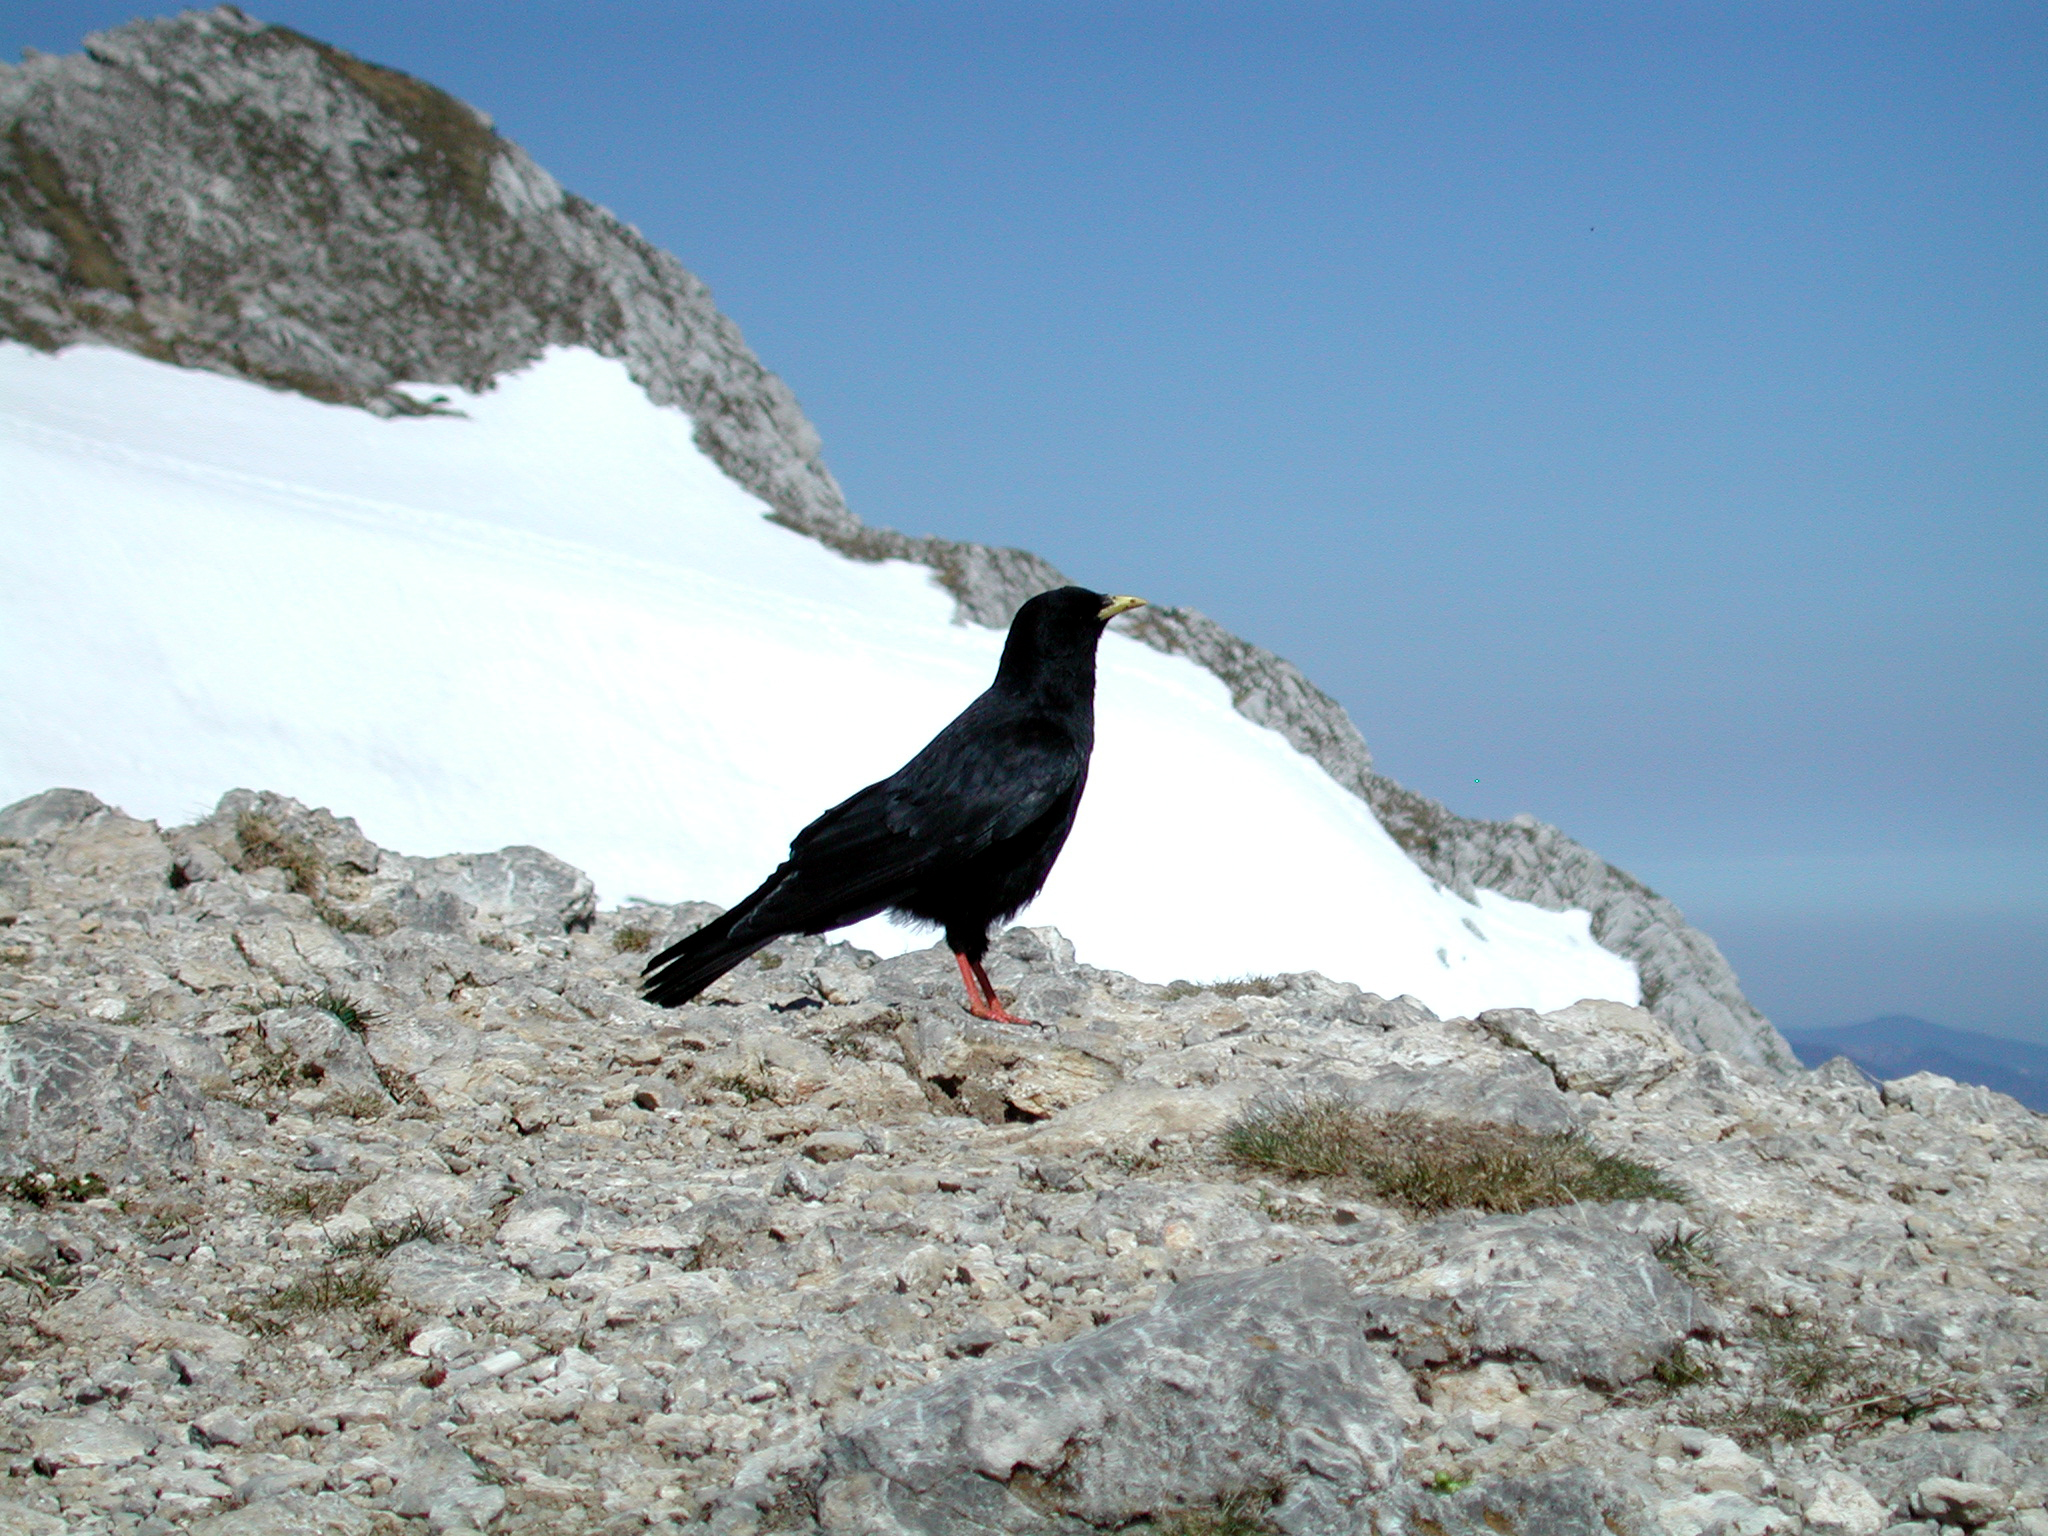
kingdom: Animalia
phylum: Chordata
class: Aves
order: Passeriformes
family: Corvidae
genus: Pyrrhocorax
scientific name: Pyrrhocorax graculus
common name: Alpine chough
